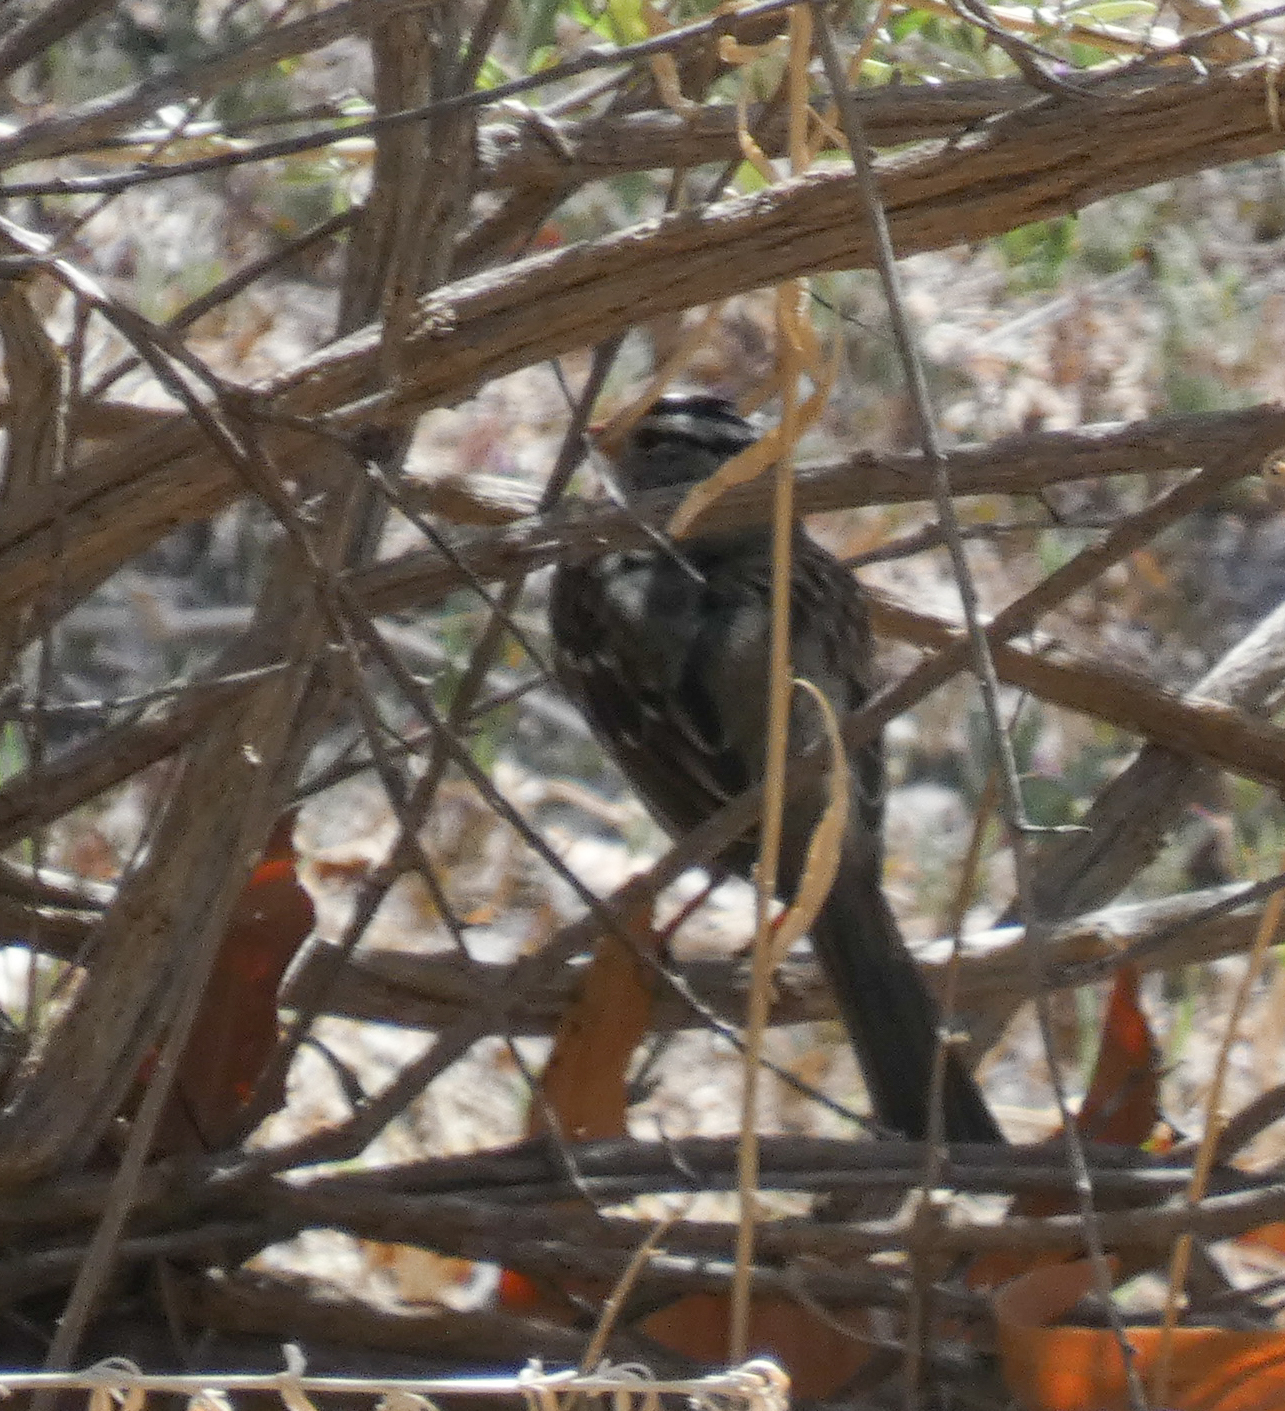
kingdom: Animalia
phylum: Chordata
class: Aves
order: Passeriformes
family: Passerellidae
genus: Zonotrichia
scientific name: Zonotrichia leucophrys
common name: White-crowned sparrow
